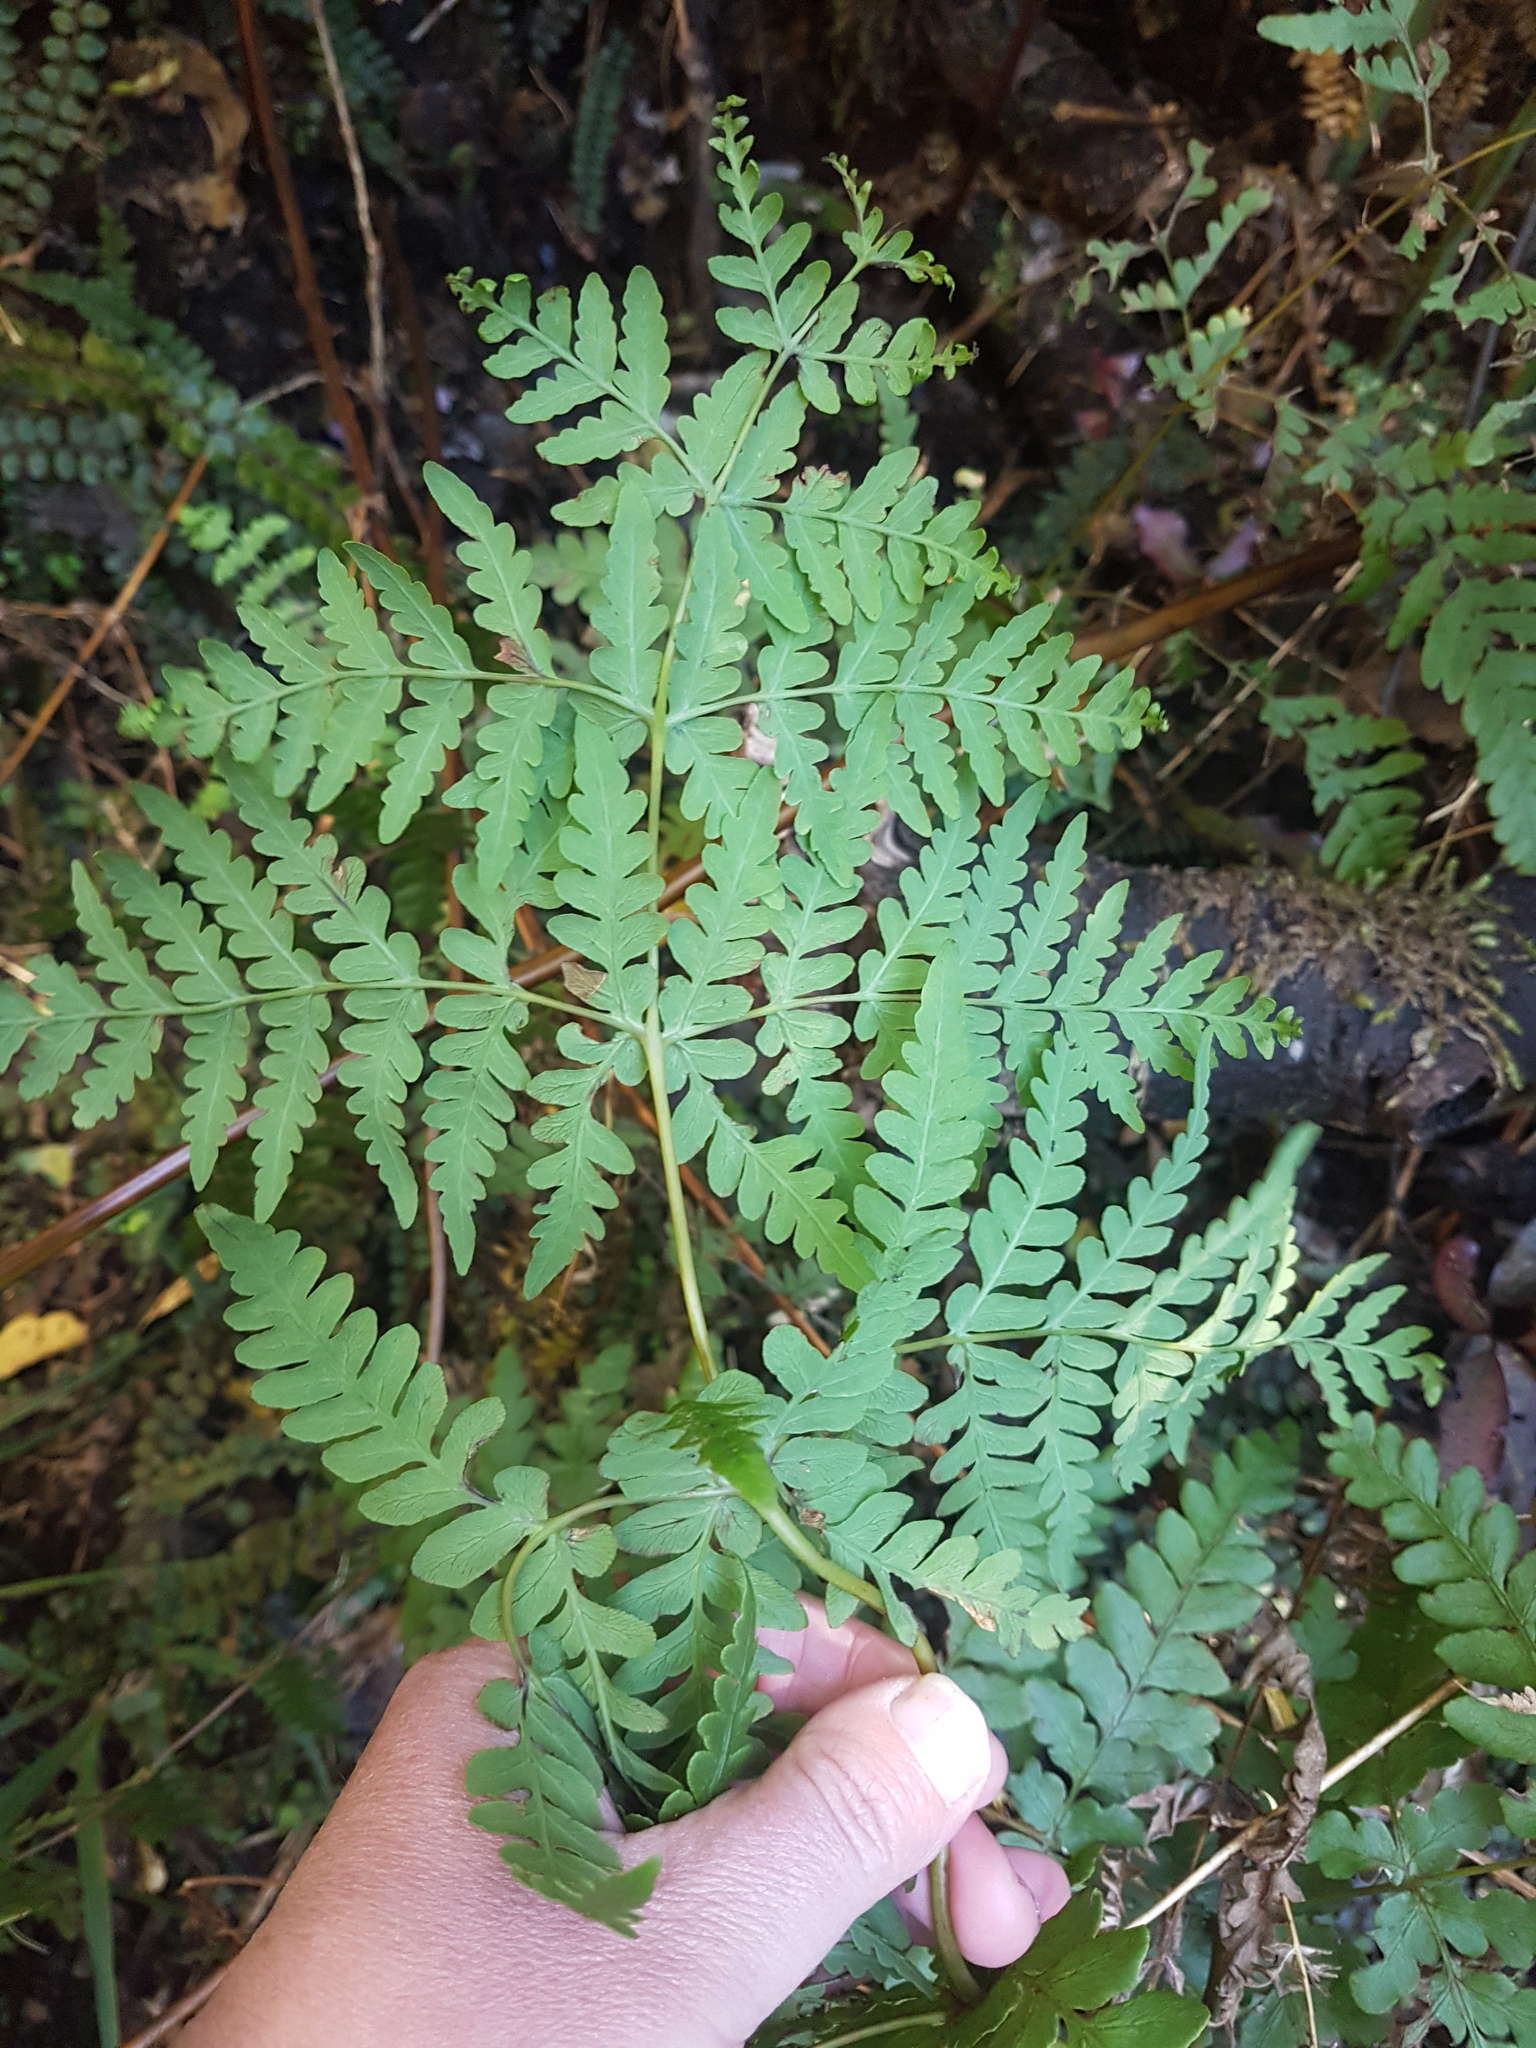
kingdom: Plantae
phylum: Tracheophyta
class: Polypodiopsida
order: Polypodiales
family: Dennstaedtiaceae
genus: Histiopteris
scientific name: Histiopteris incisa
